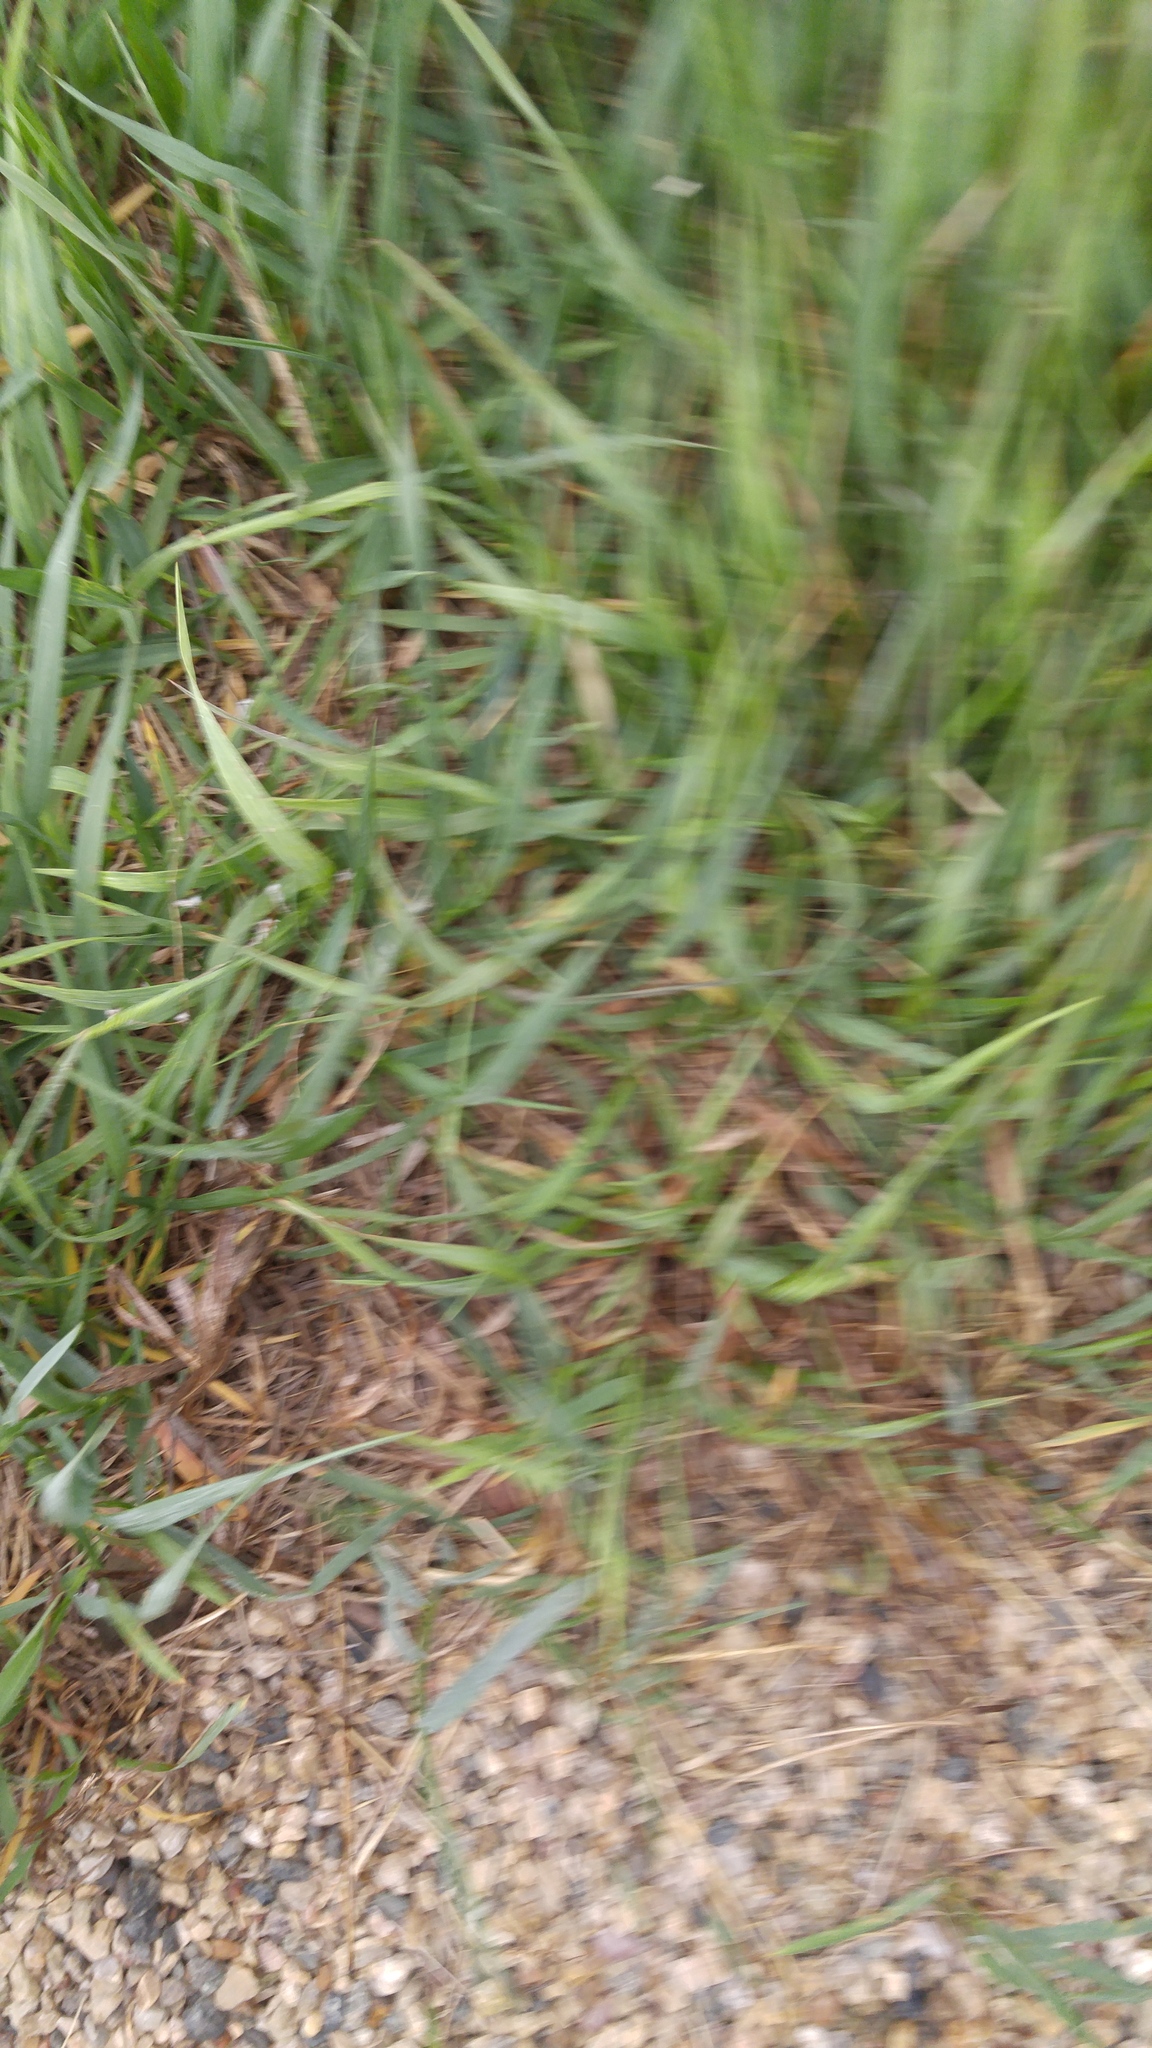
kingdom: Plantae
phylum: Tracheophyta
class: Liliopsida
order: Poales
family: Poaceae
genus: Bromus
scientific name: Bromus inermis
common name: Smooth brome
